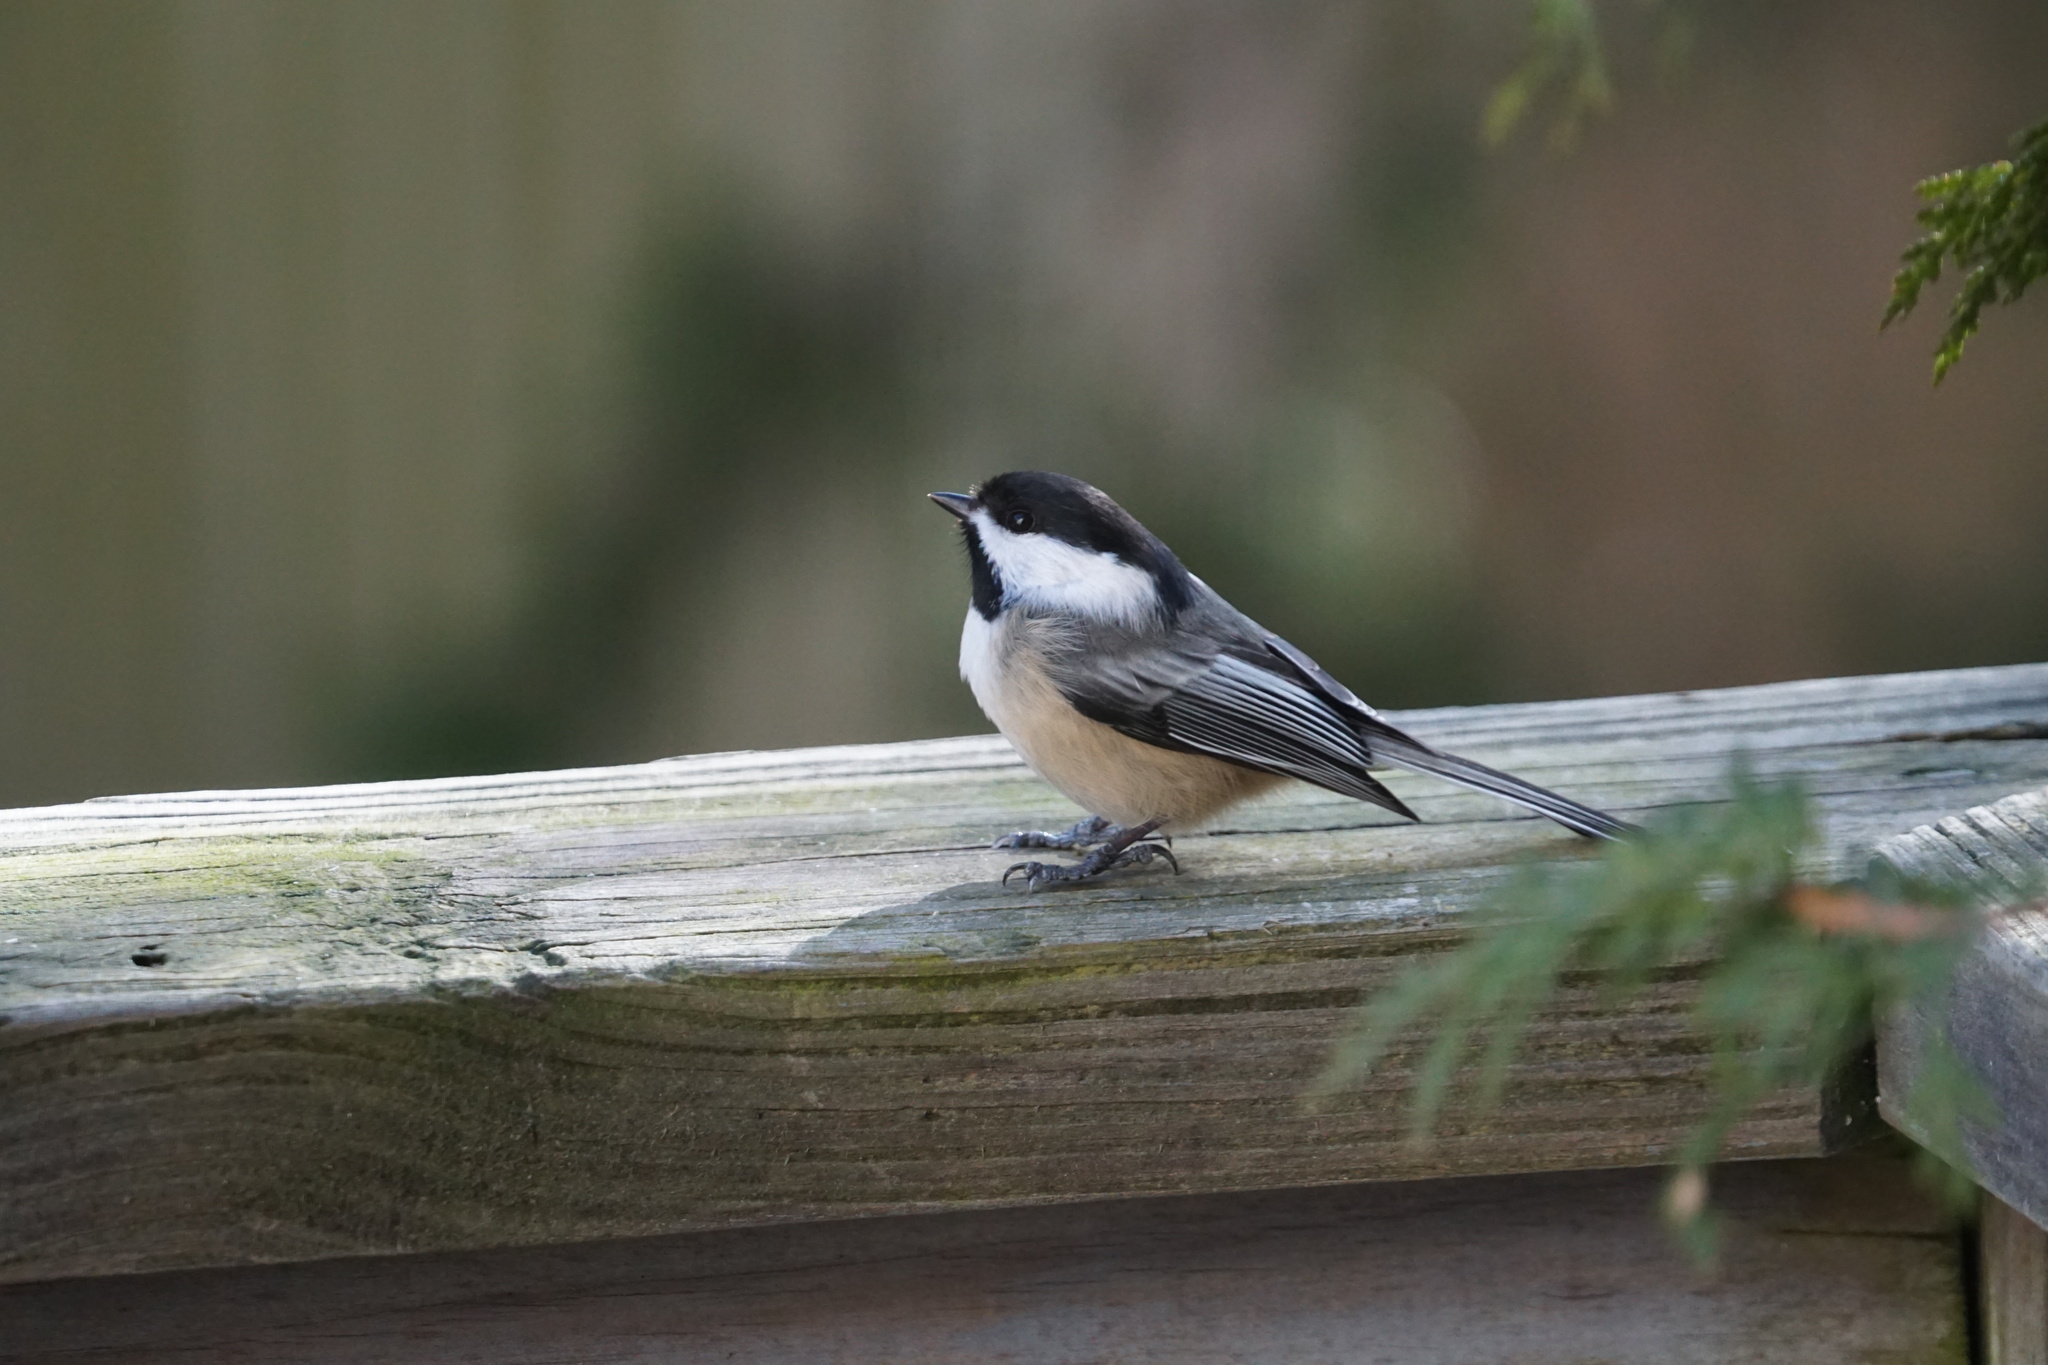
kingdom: Animalia
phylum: Chordata
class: Aves
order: Passeriformes
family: Paridae
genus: Poecile
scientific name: Poecile atricapillus
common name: Black-capped chickadee
